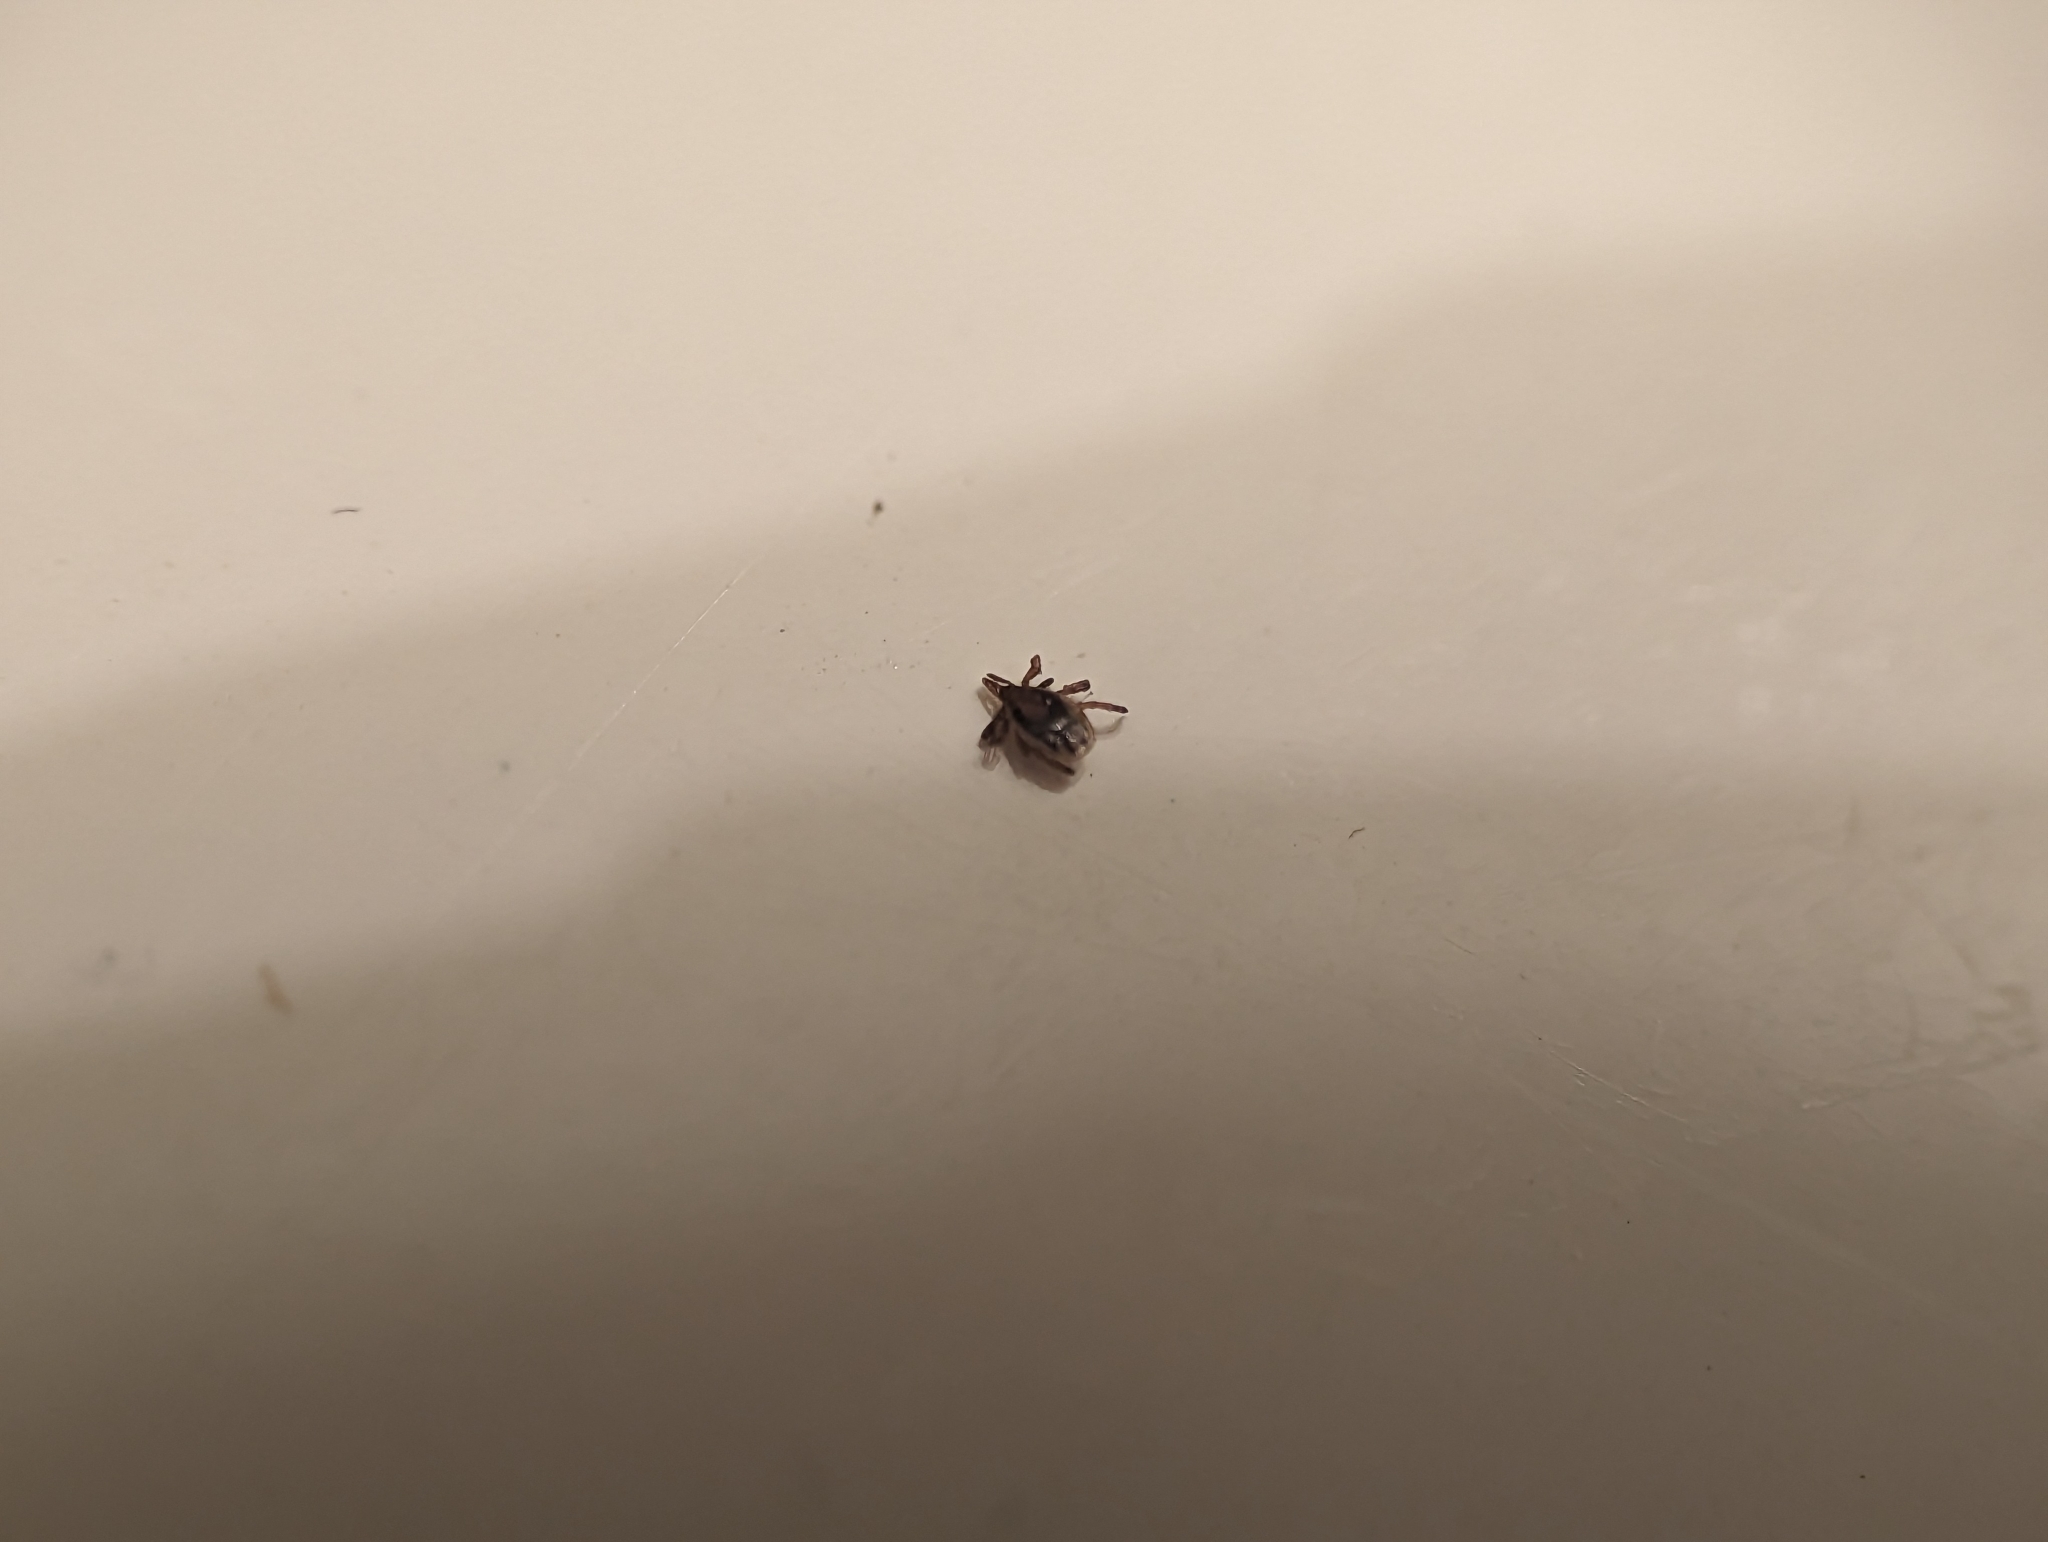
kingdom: Animalia
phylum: Arthropoda
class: Arachnida
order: Ixodida
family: Ixodidae
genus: Ixodes
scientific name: Ixodes scapularis
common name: Black legged tick
